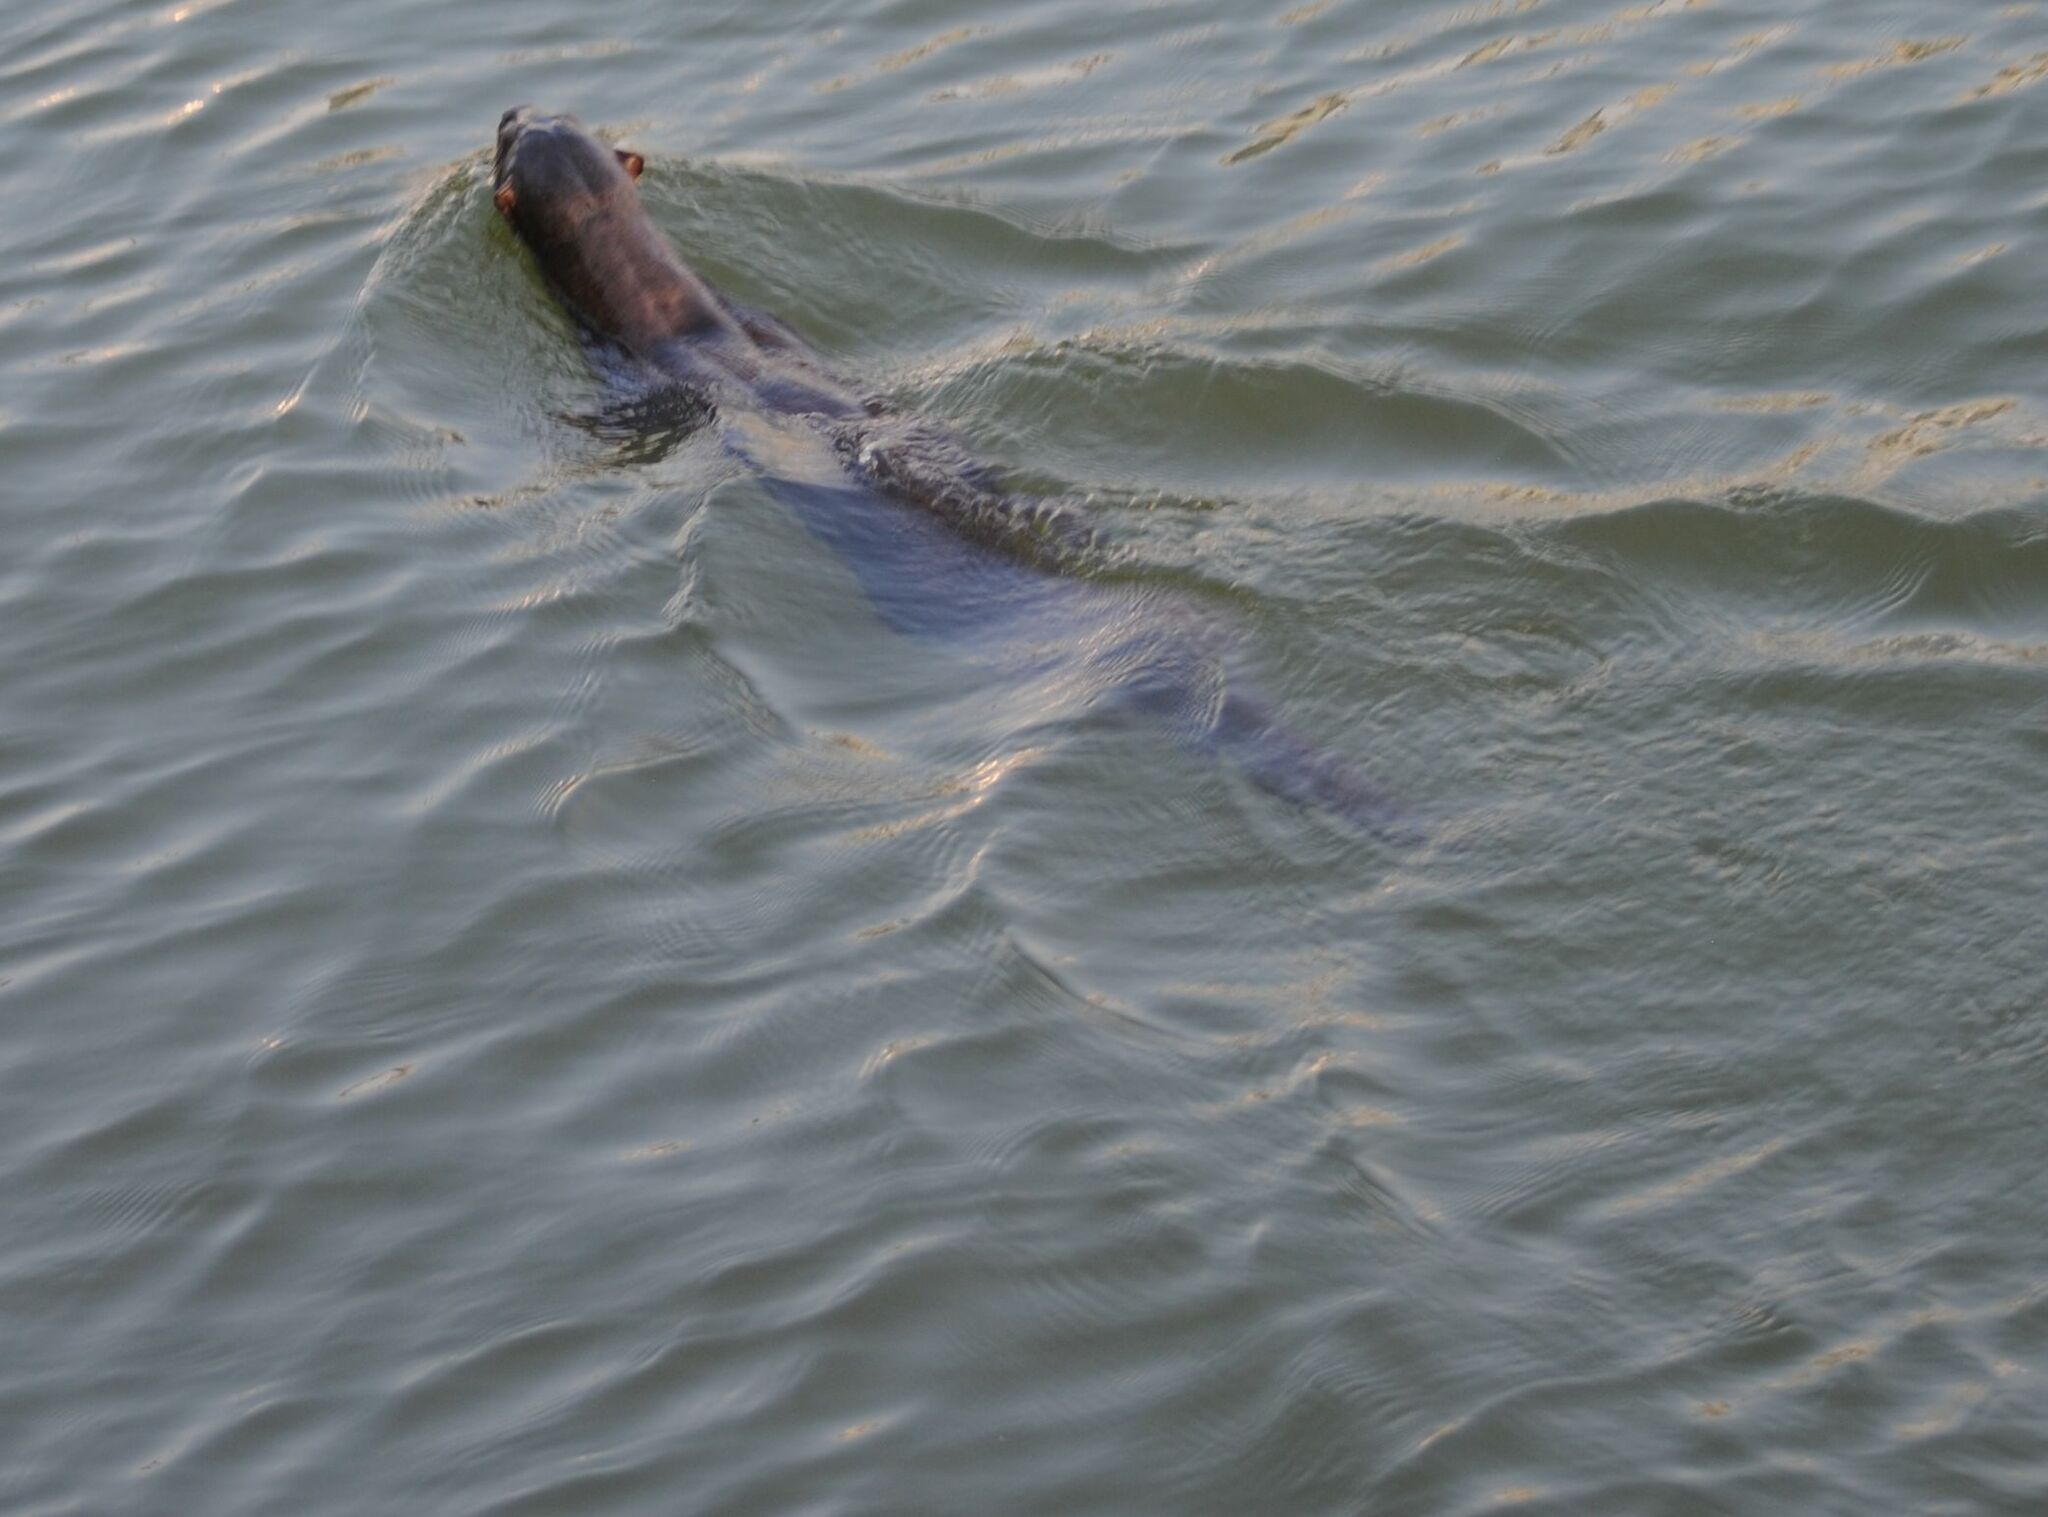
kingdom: Animalia
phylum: Chordata
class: Mammalia
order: Carnivora
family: Mustelidae
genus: Lutrogale
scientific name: Lutrogale perspicillata
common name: Smooth-coated otter
